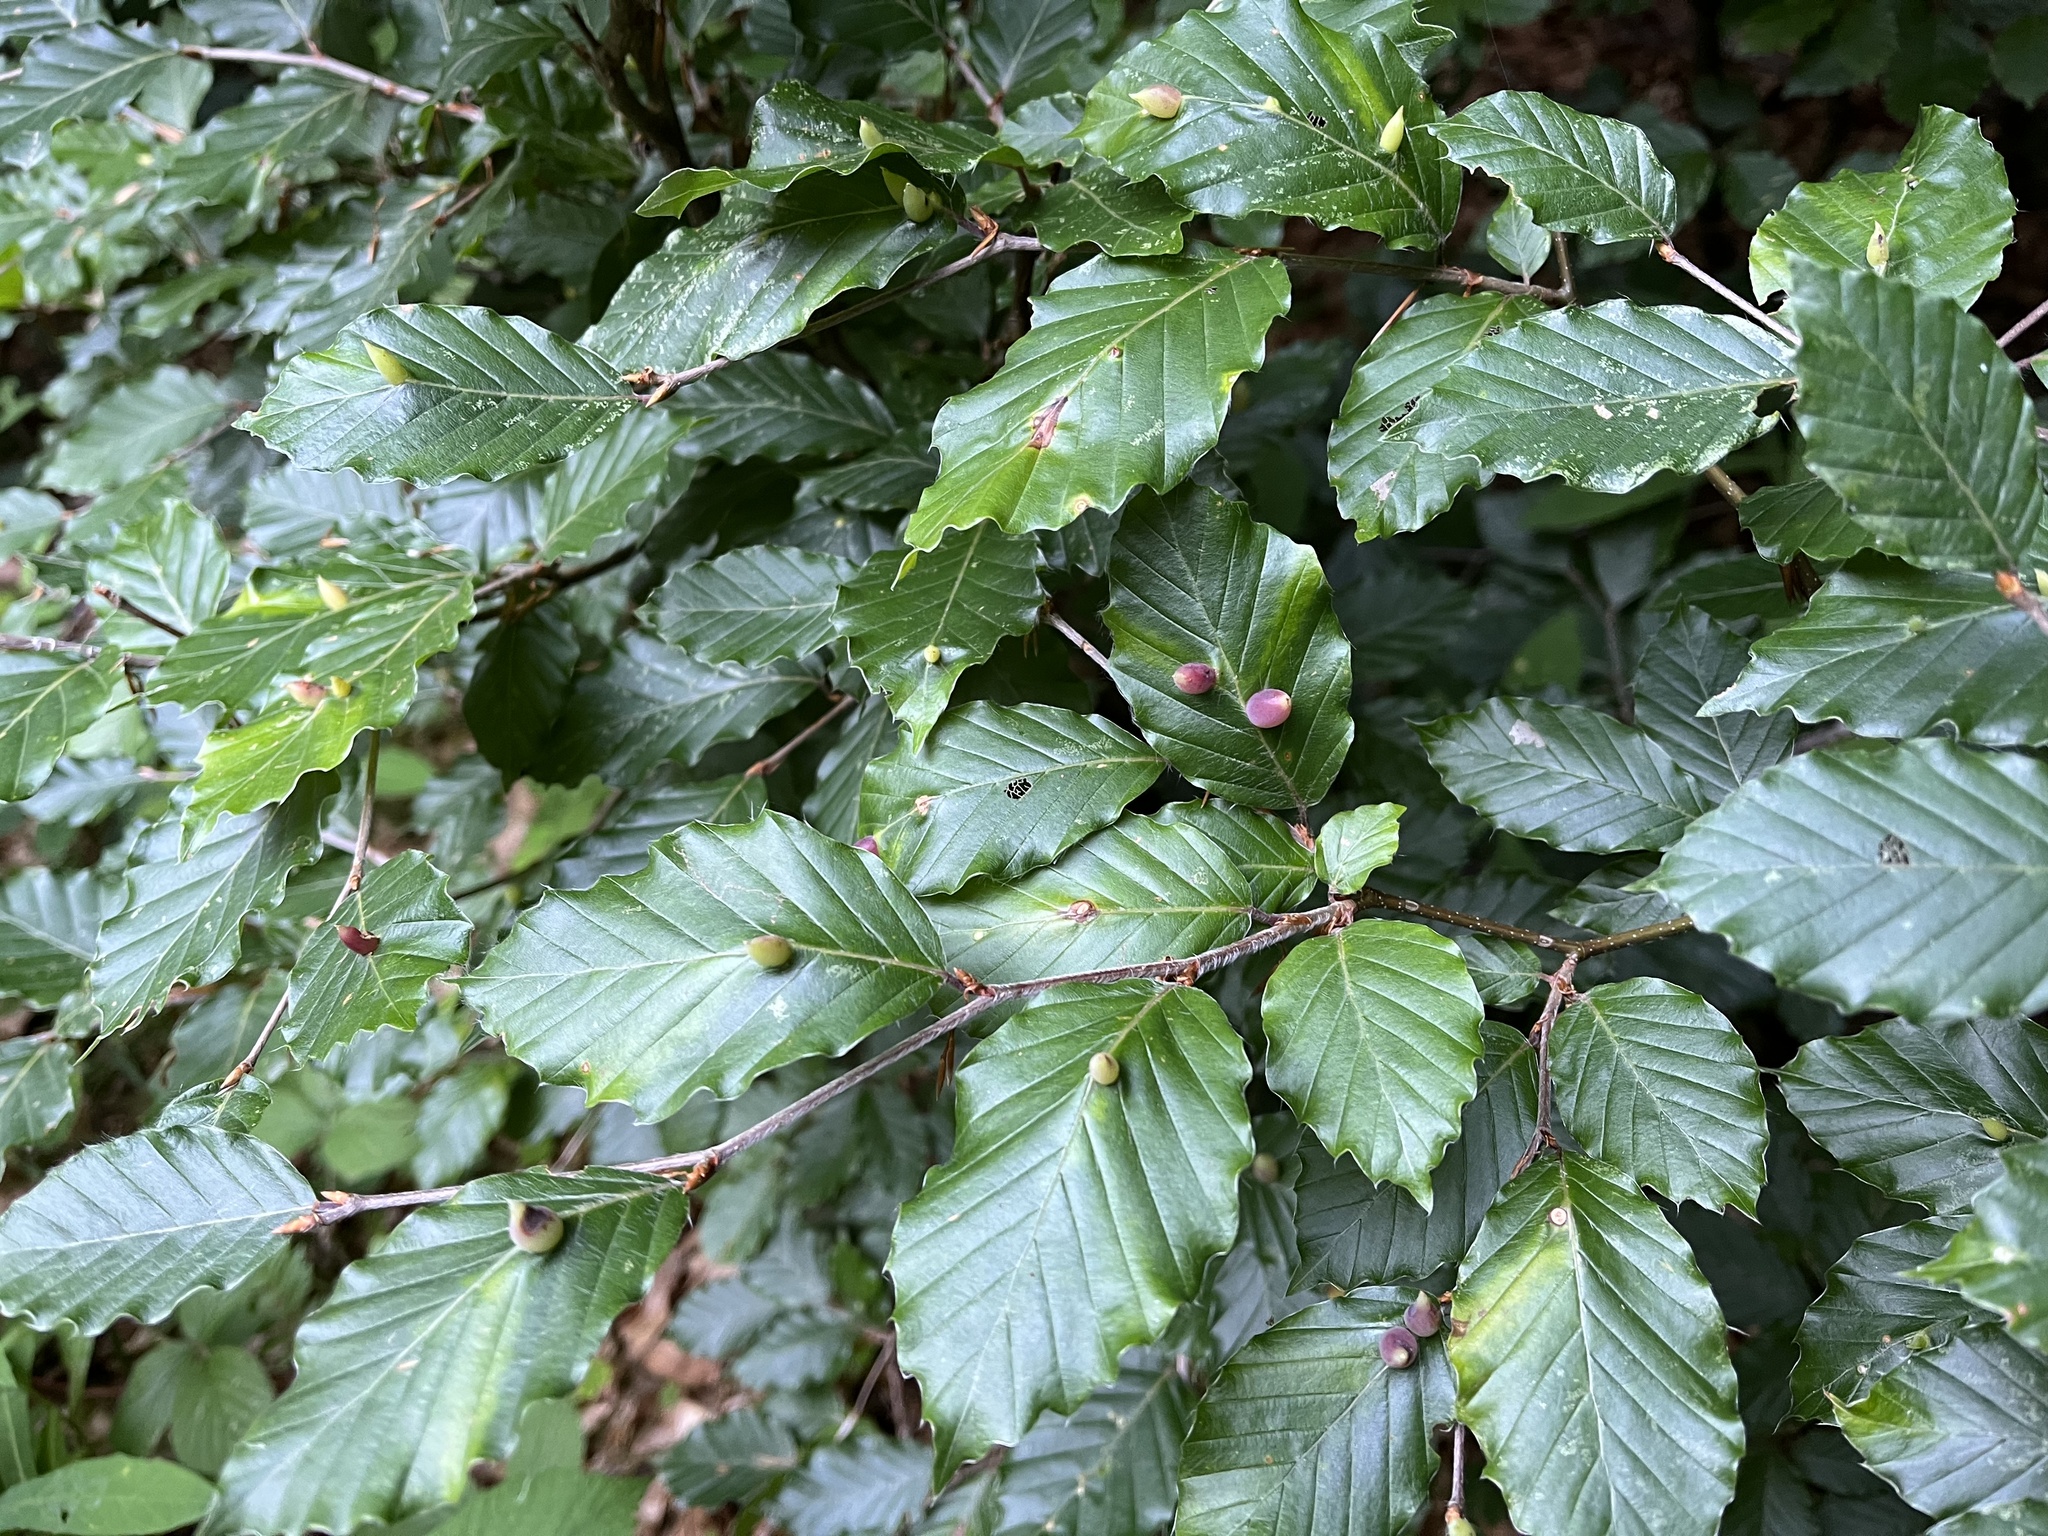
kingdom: Animalia
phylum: Arthropoda
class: Insecta
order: Diptera
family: Cecidomyiidae
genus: Mikiola
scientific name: Mikiola fagi
